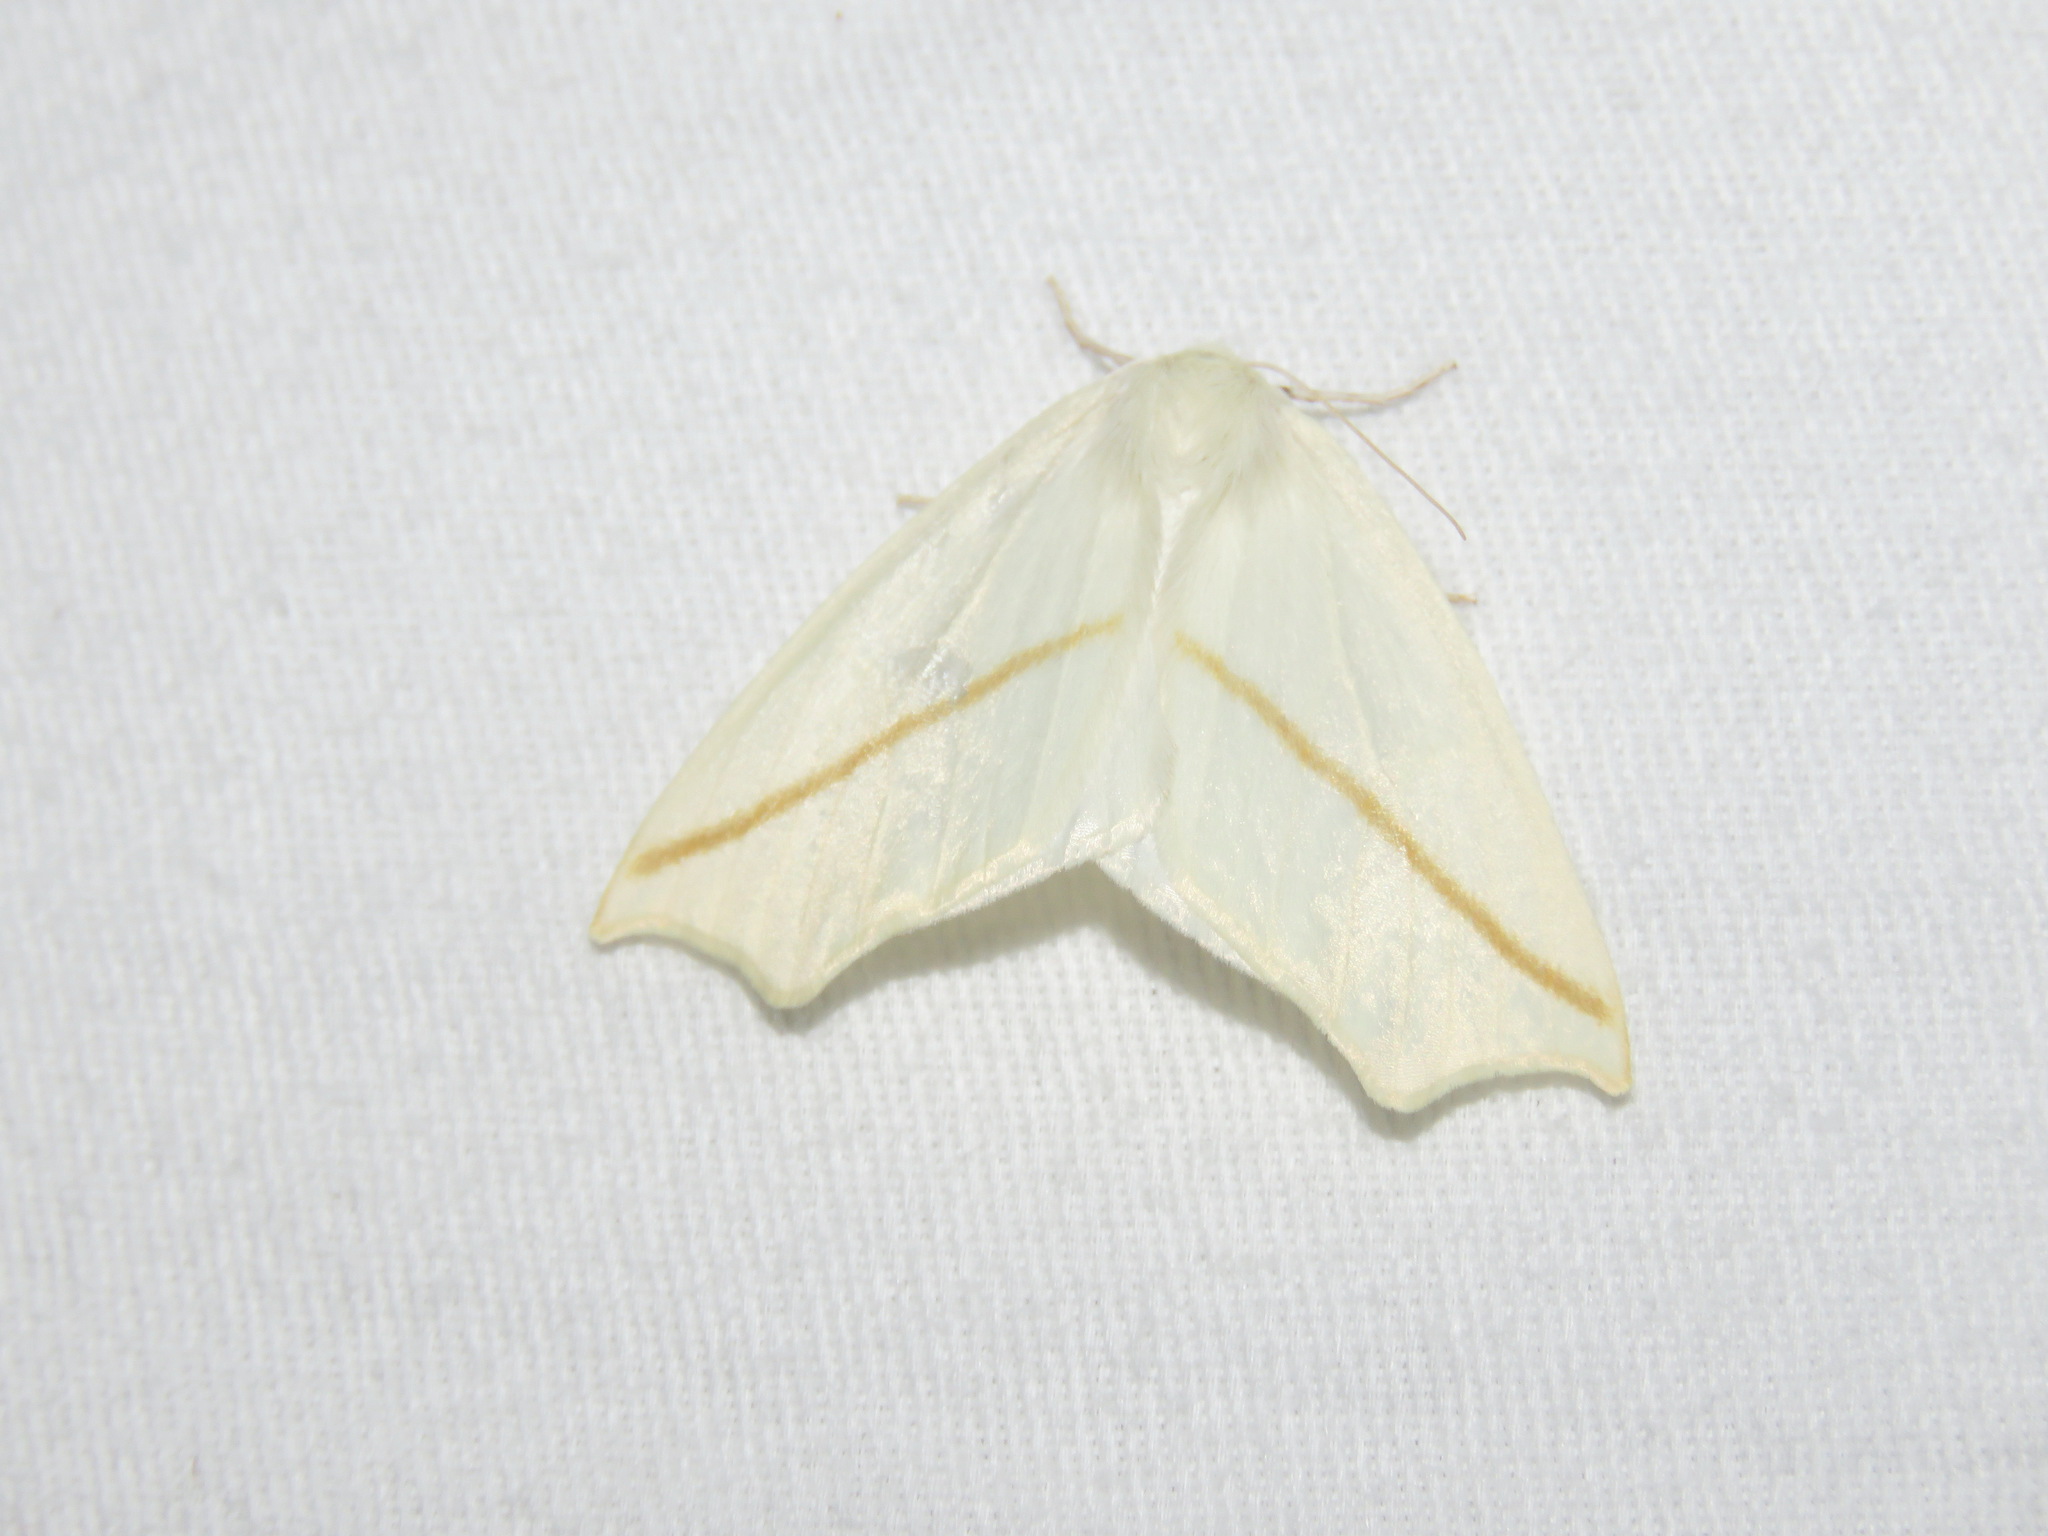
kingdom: Animalia
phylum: Arthropoda
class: Insecta
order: Lepidoptera
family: Geometridae
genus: Tetracis
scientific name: Tetracis cachexiata
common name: White slant-line
